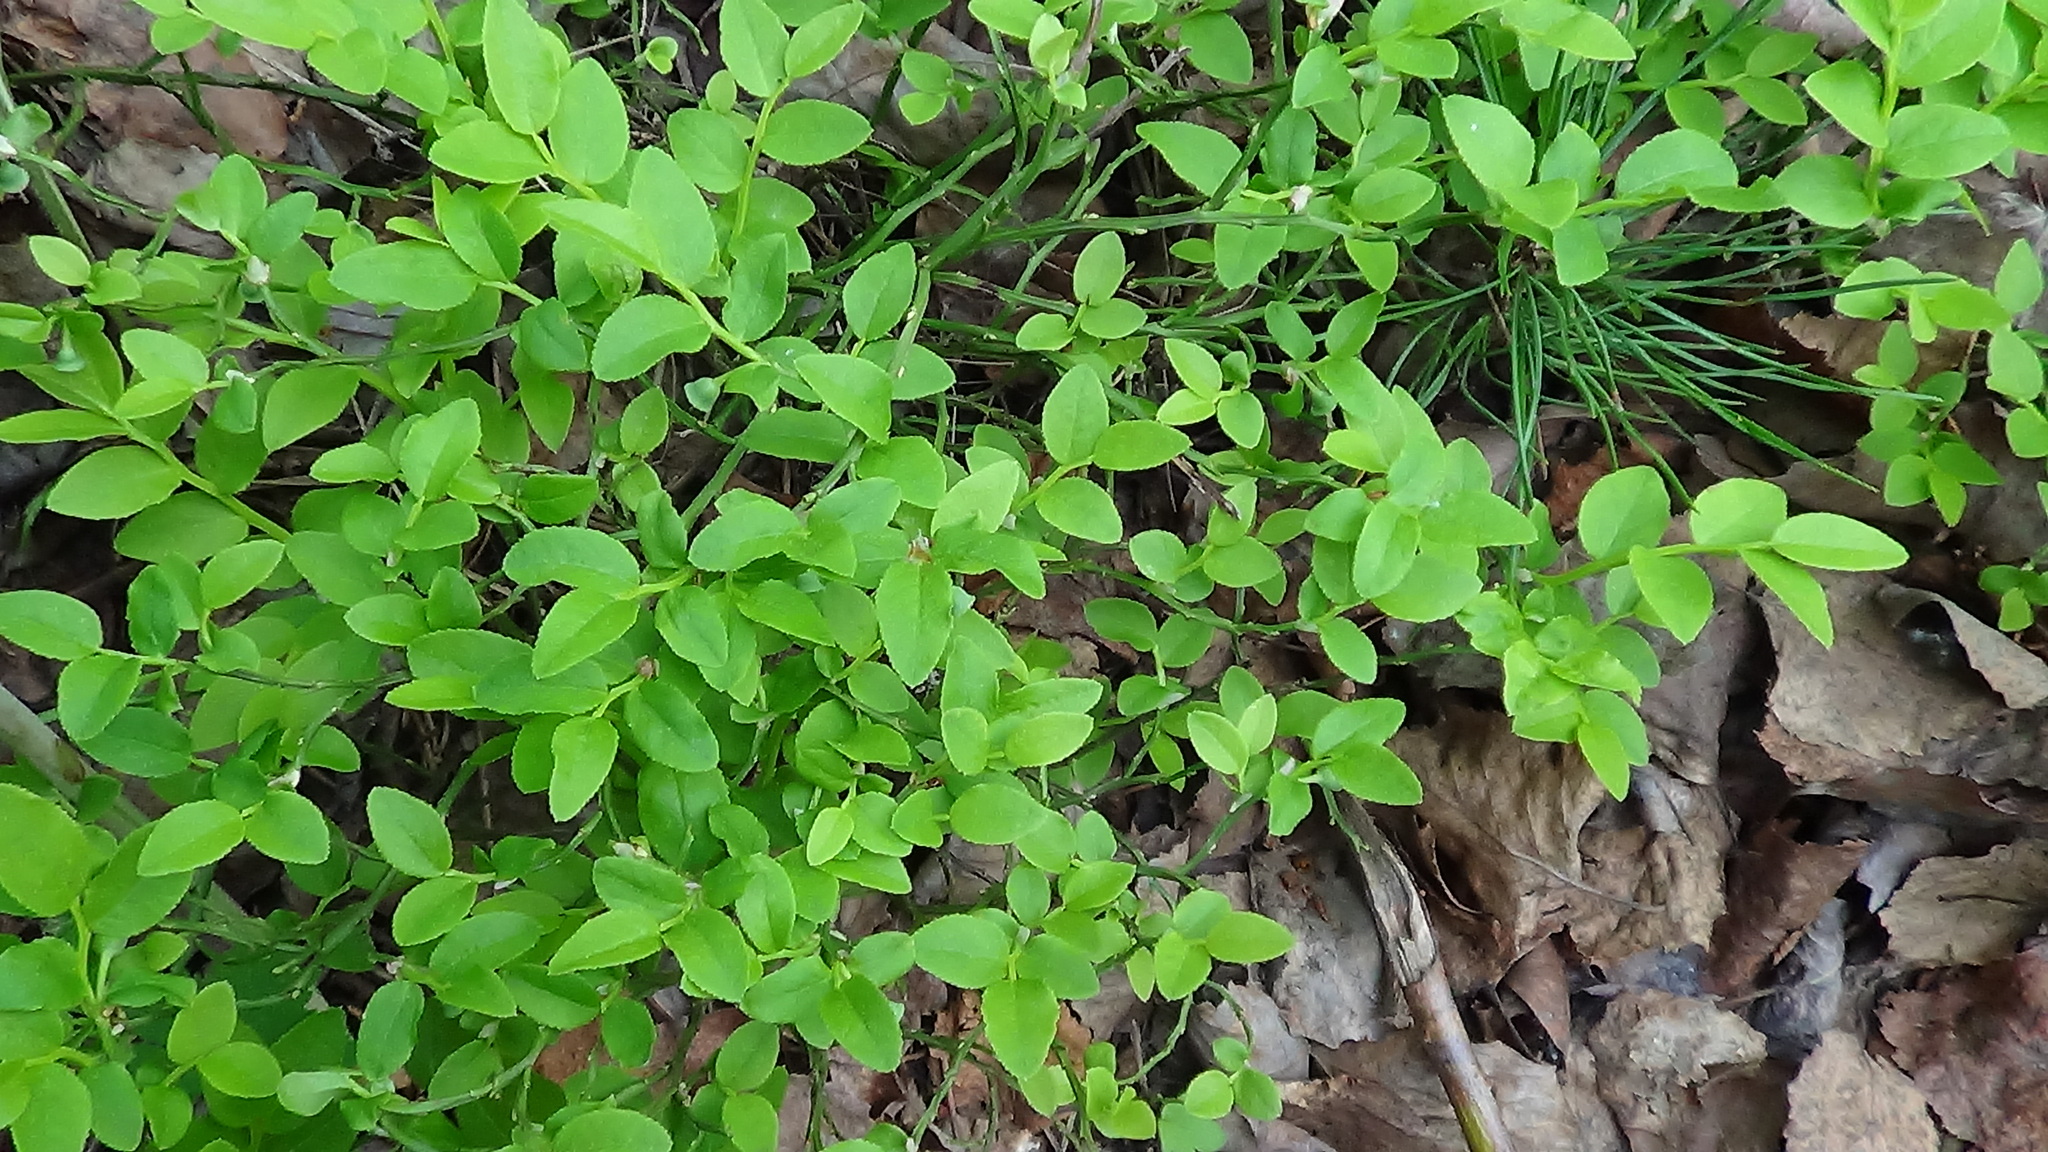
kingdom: Plantae
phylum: Tracheophyta
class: Magnoliopsida
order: Ericales
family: Ericaceae
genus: Vaccinium
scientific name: Vaccinium myrtillus
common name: Bilberry
